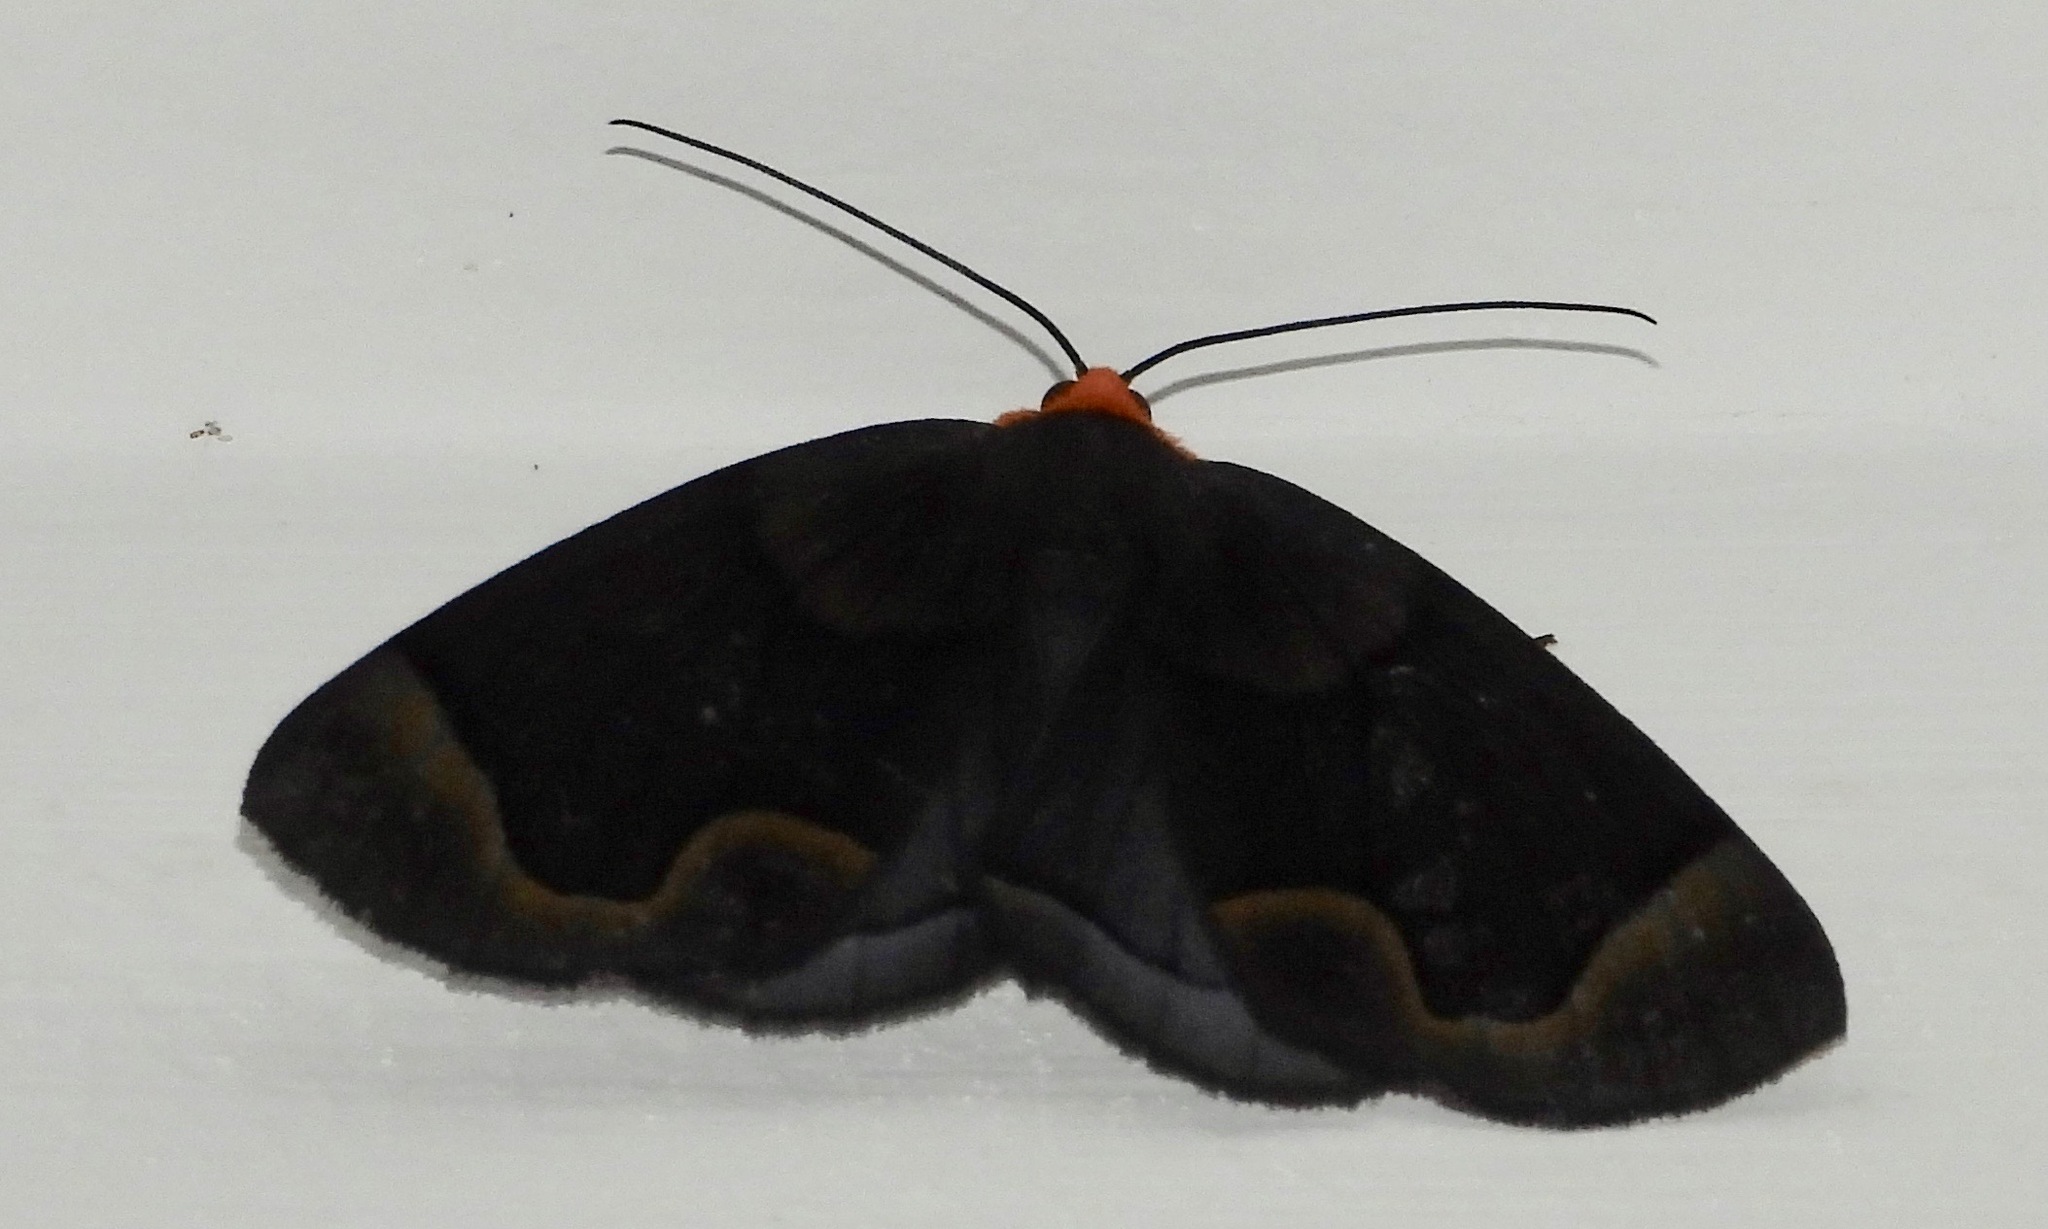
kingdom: Animalia
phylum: Arthropoda
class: Insecta
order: Lepidoptera
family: Geometridae
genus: Simena
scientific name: Simena
